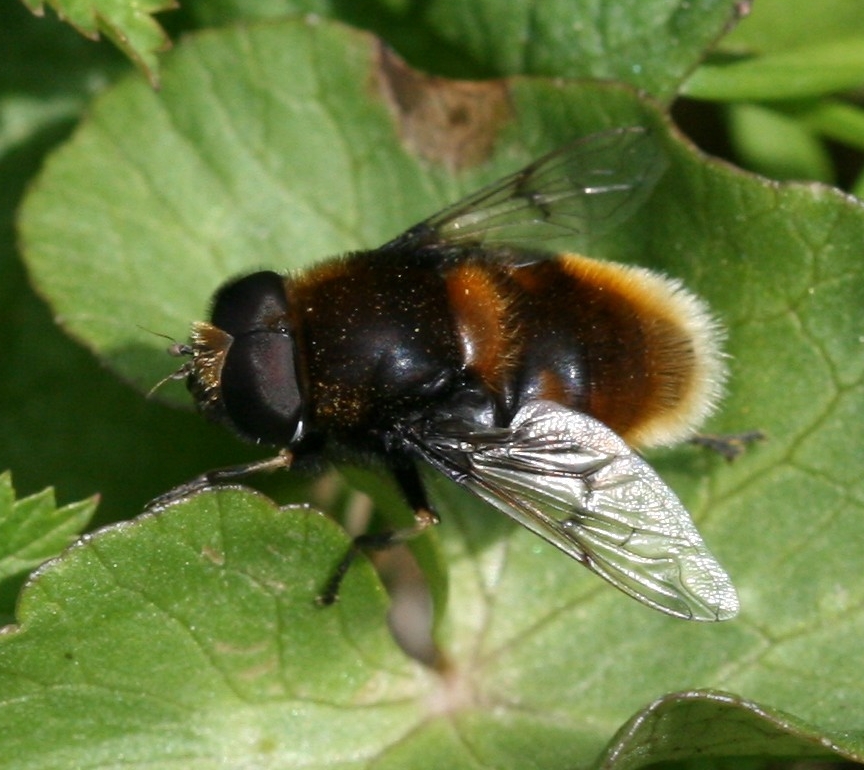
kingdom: Animalia
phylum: Arthropoda
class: Insecta
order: Diptera
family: Syrphidae
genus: Eristalis
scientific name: Eristalis intricaria
